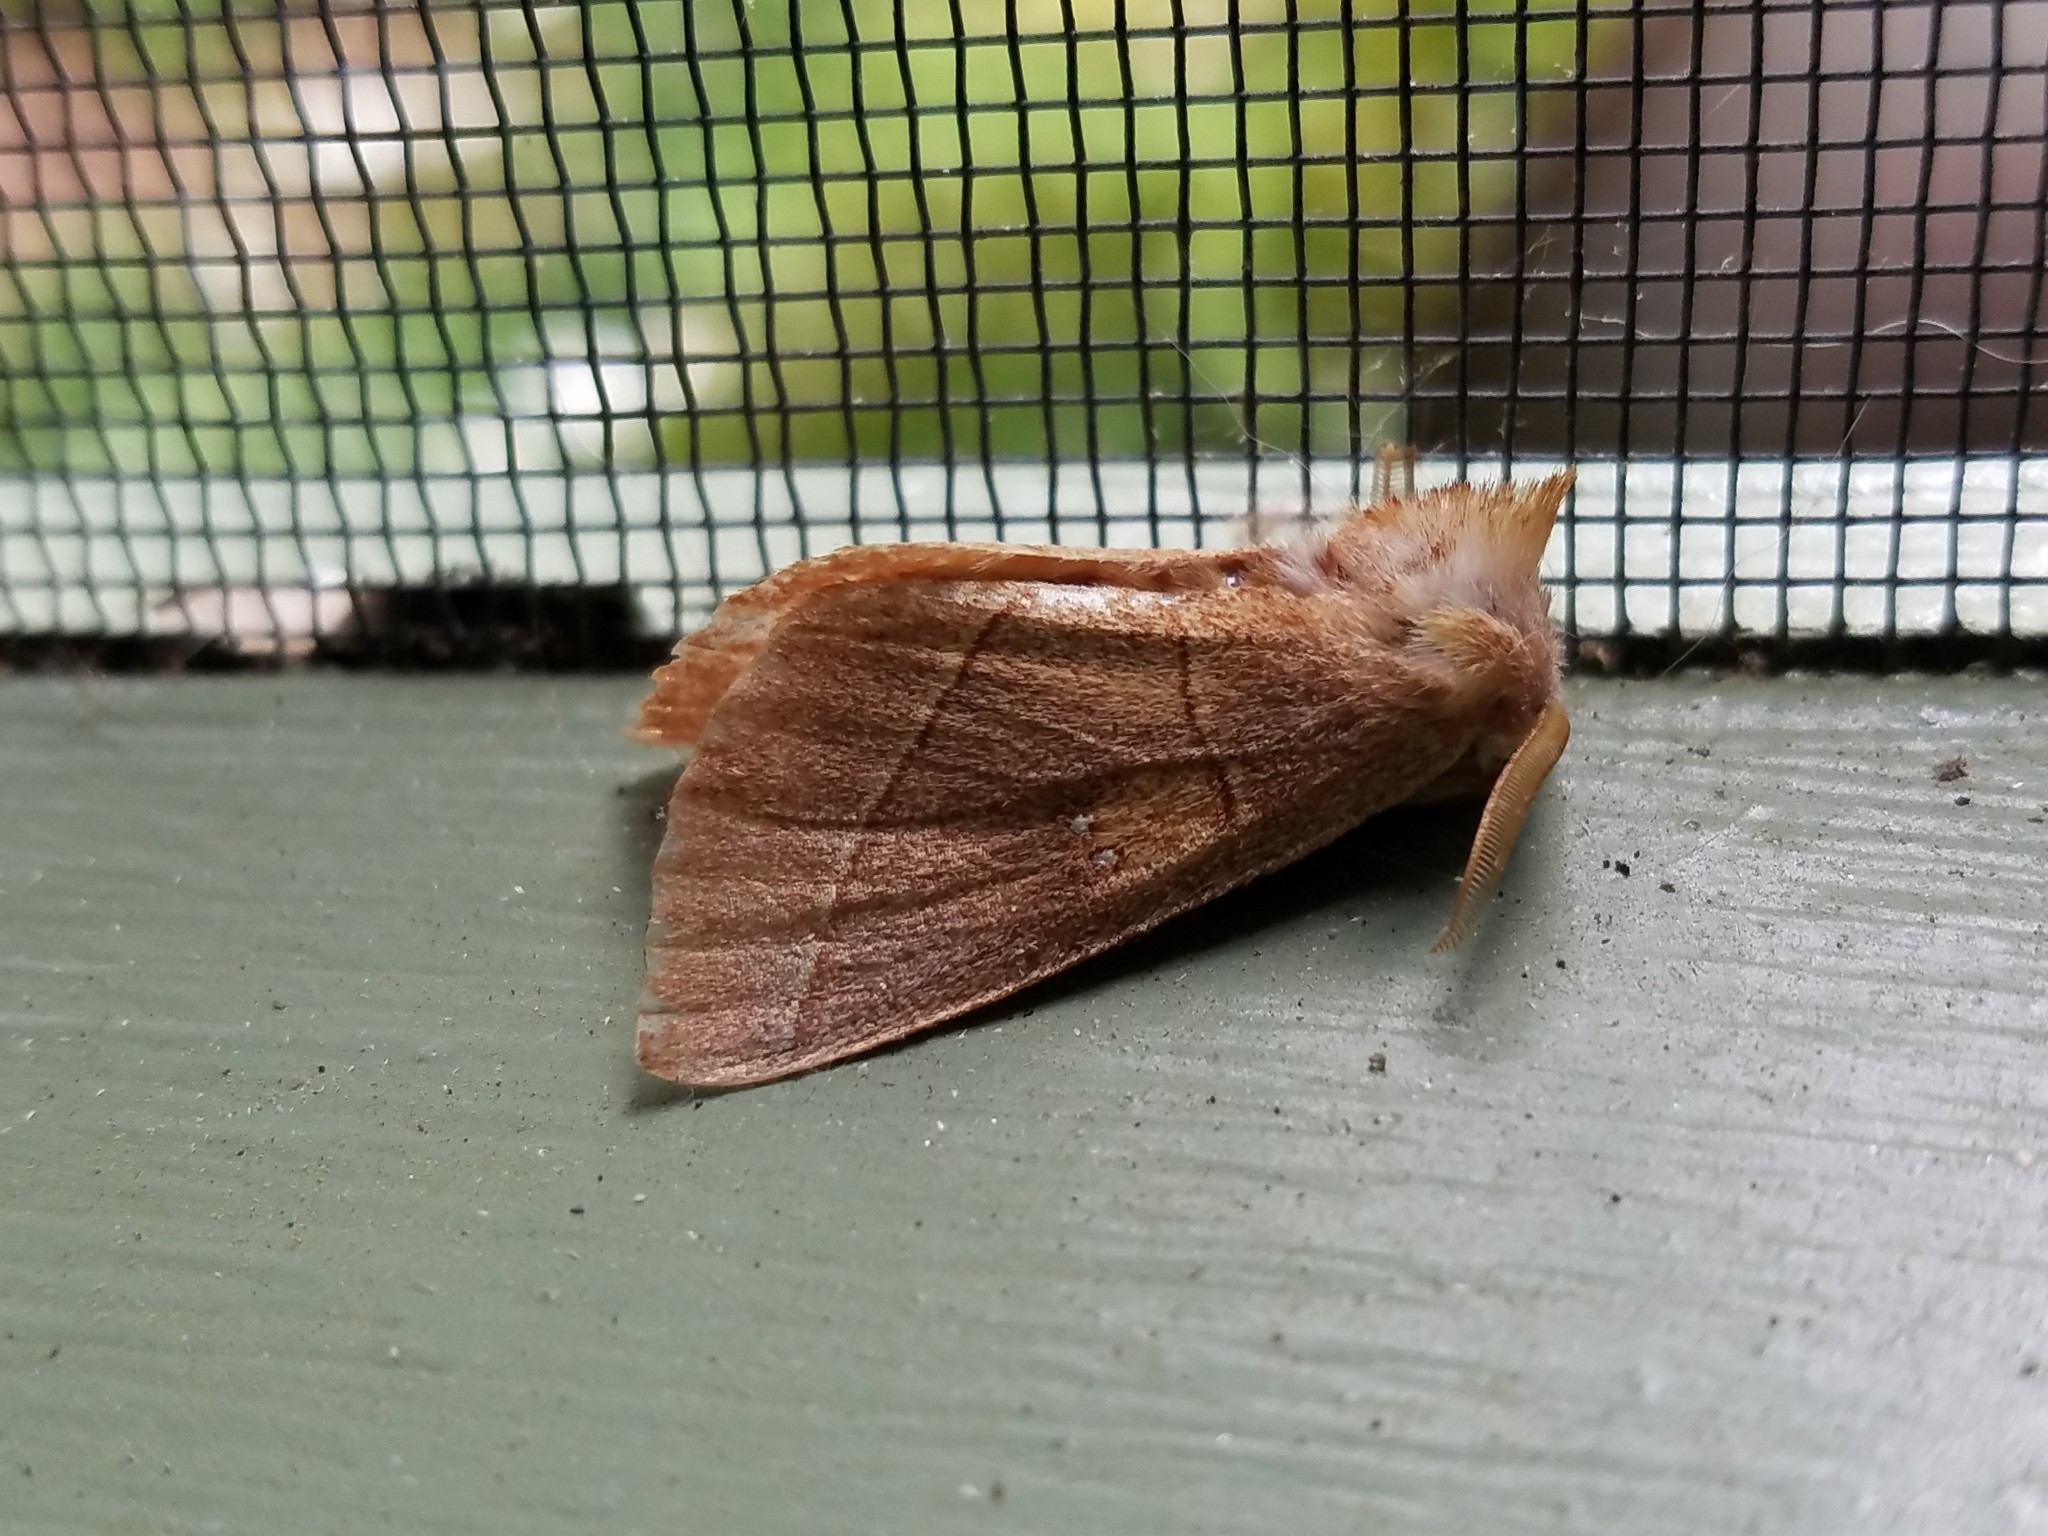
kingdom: Animalia
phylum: Arthropoda
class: Insecta
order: Lepidoptera
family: Notodontidae
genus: Nadata
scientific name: Nadata gibbosa
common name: White-dotted prominent
